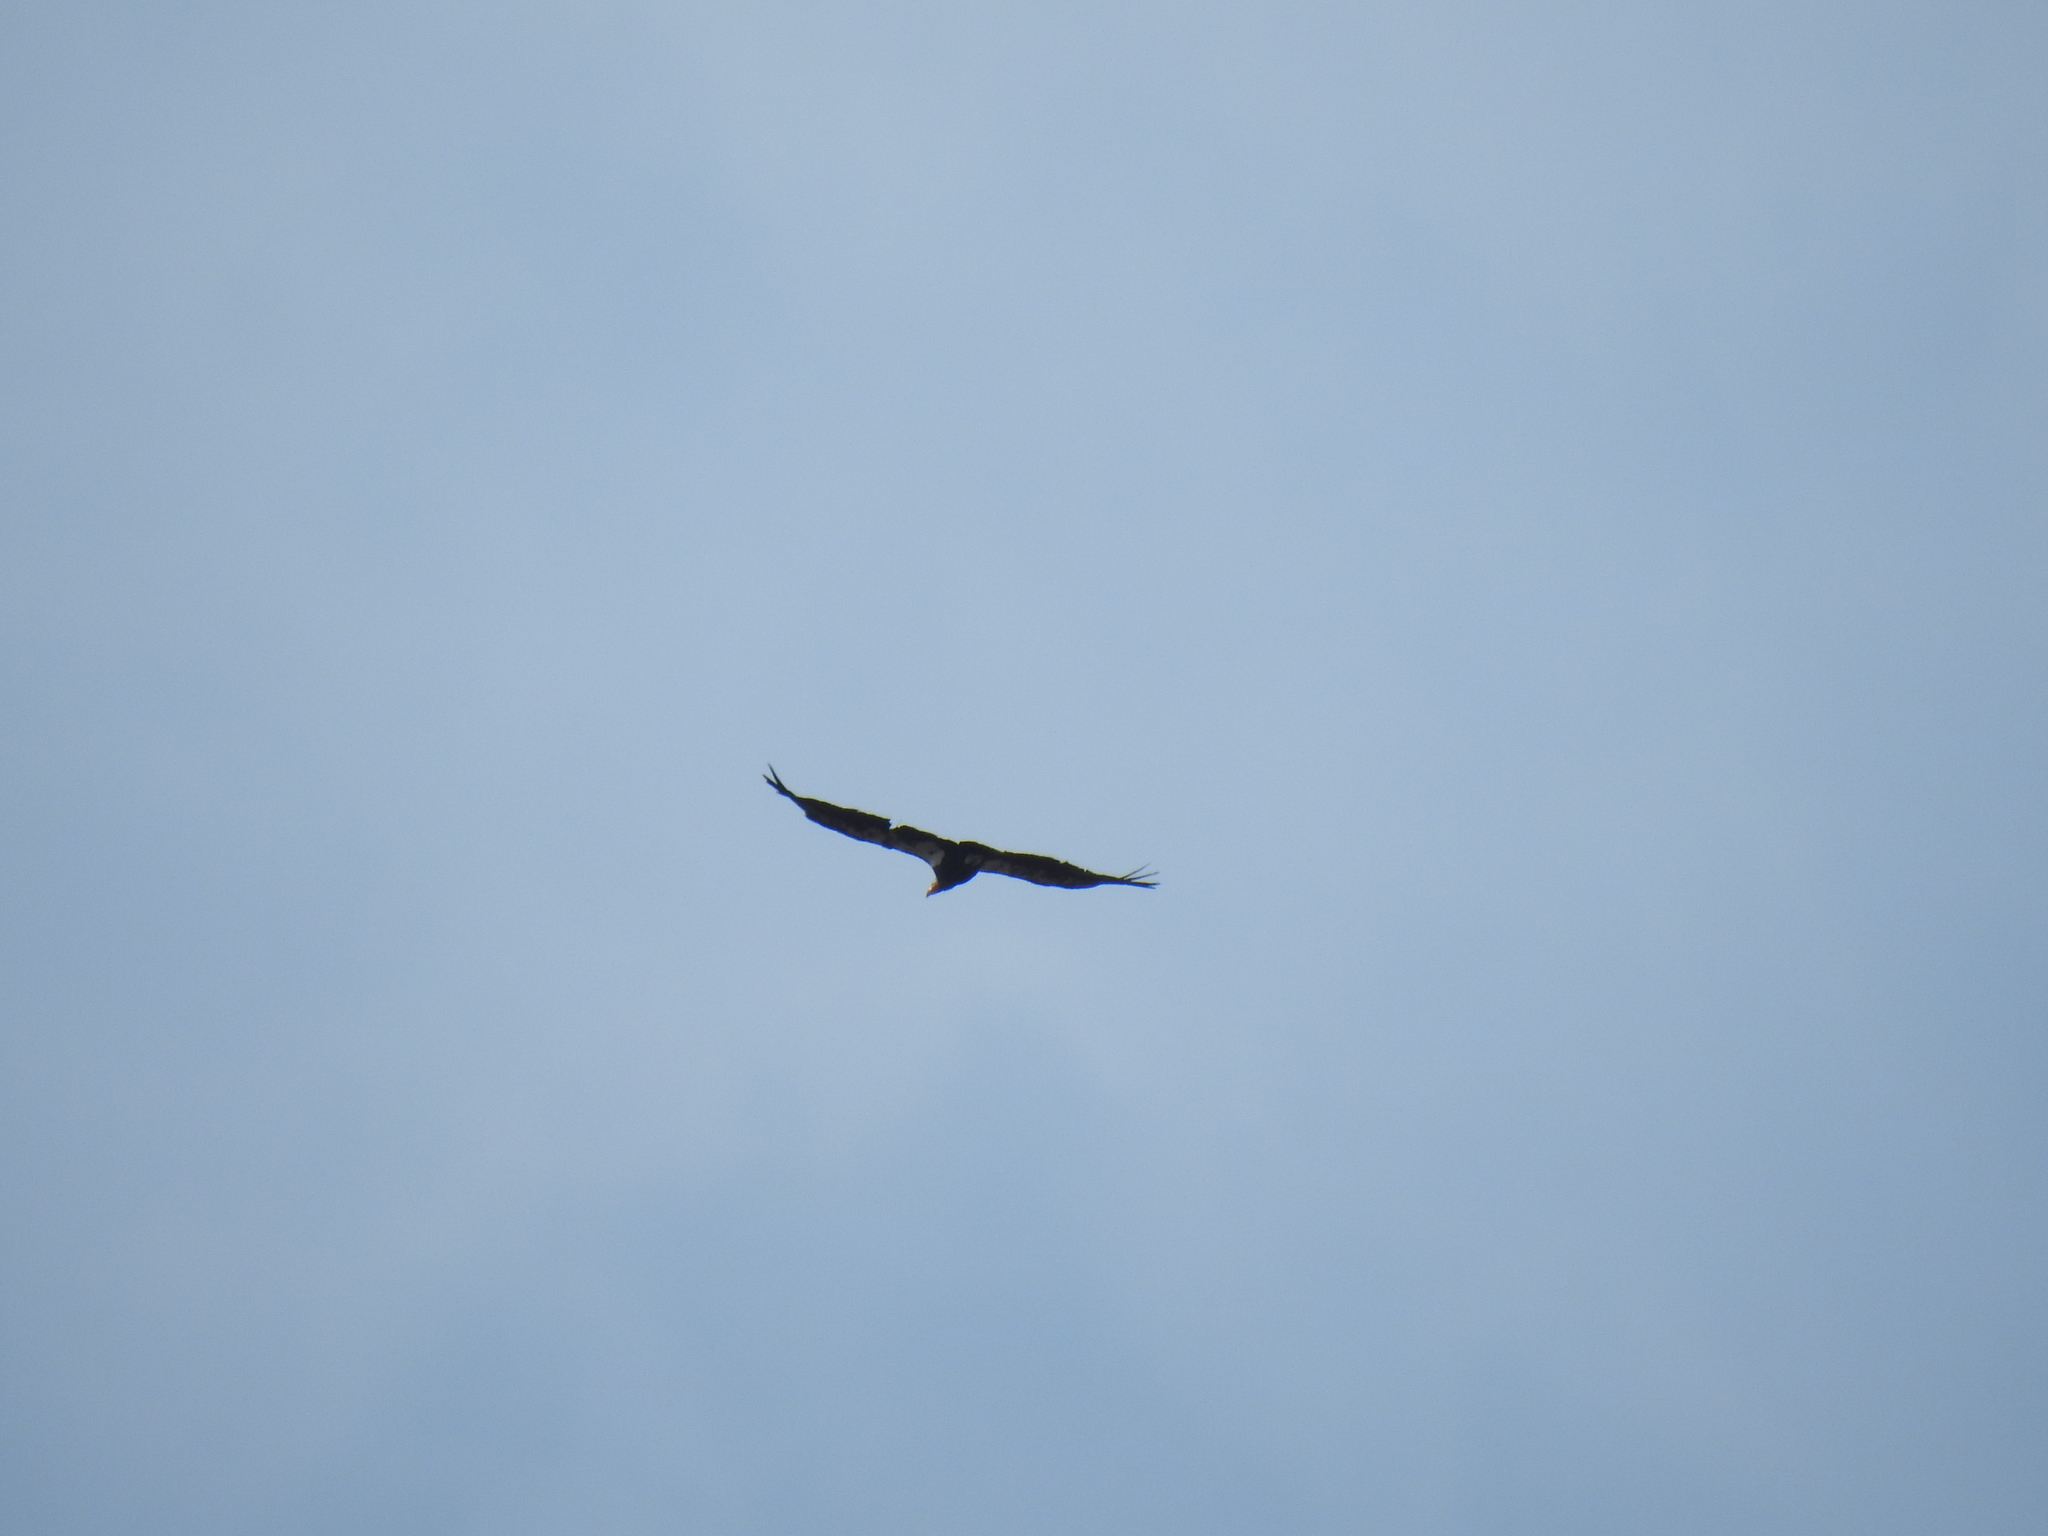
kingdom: Animalia
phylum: Chordata
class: Aves
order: Accipitriformes
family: Cathartidae
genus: Gymnogyps
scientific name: Gymnogyps californianus
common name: California condor
